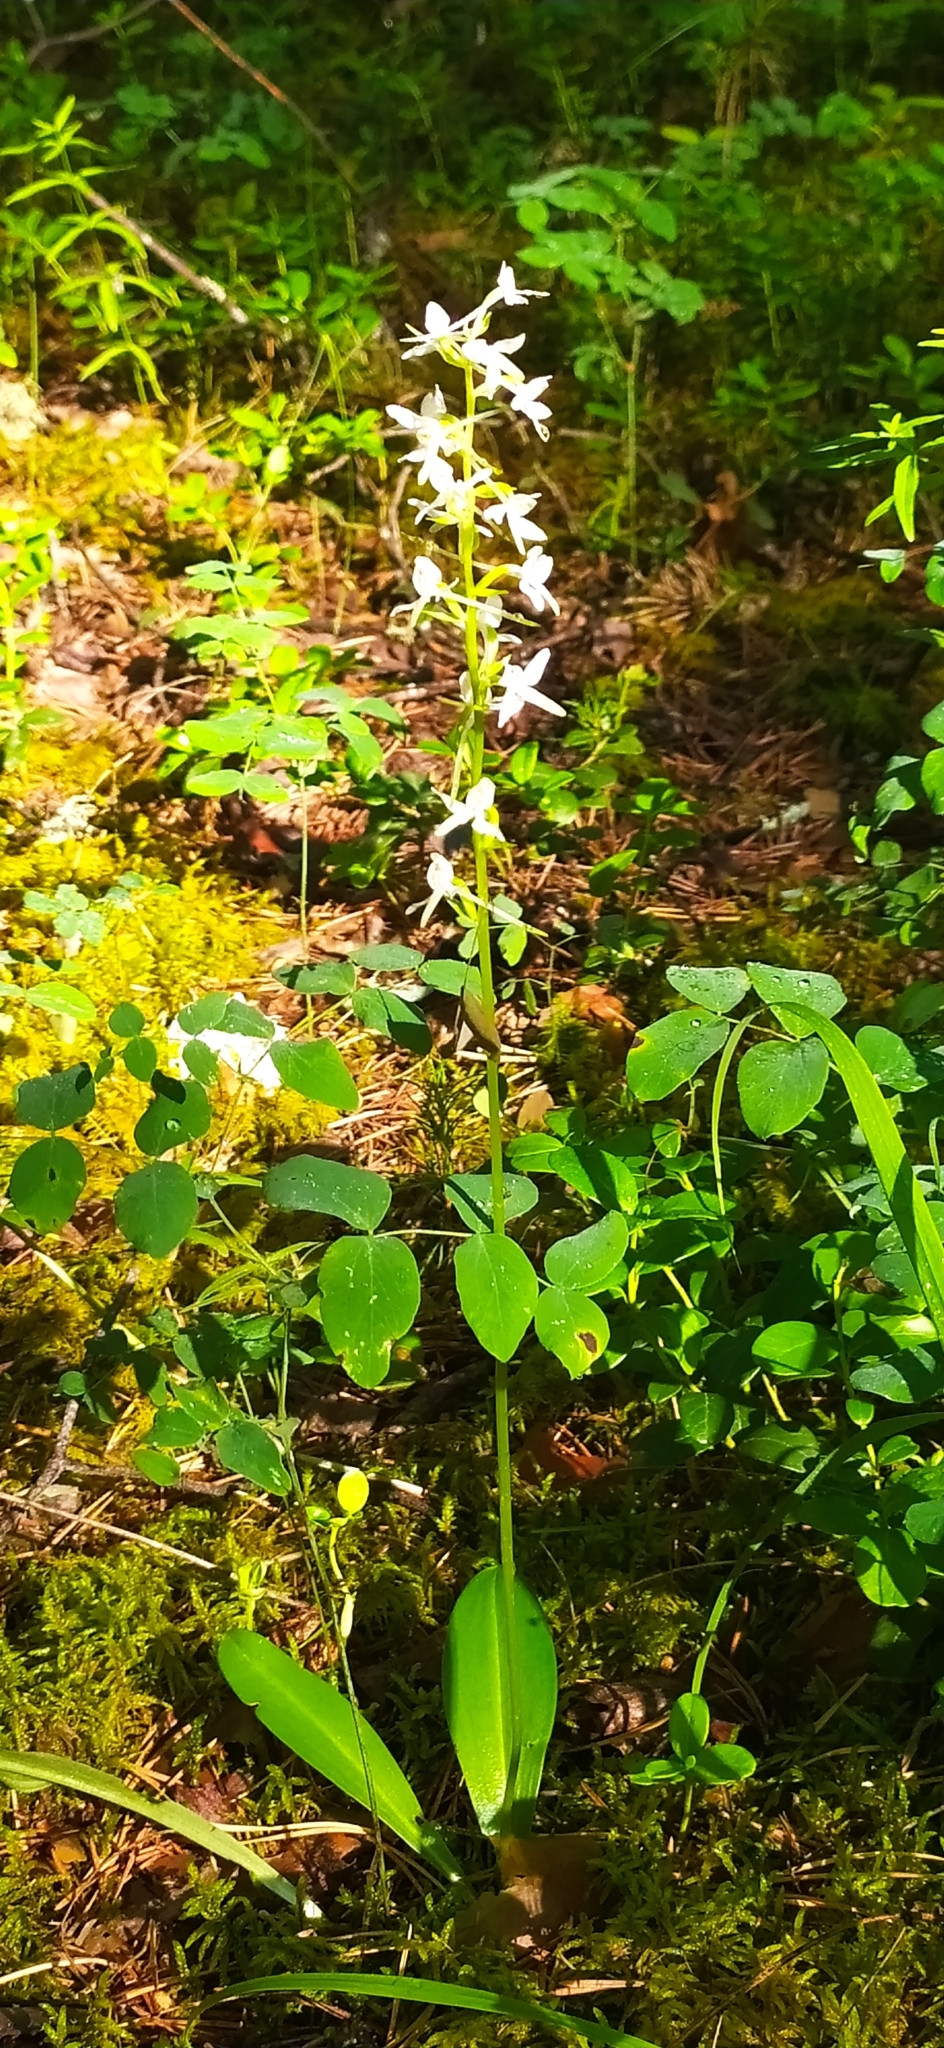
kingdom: Plantae
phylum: Tracheophyta
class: Liliopsida
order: Asparagales
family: Orchidaceae
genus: Platanthera
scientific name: Platanthera bifolia
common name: Lesser butterfly-orchid
